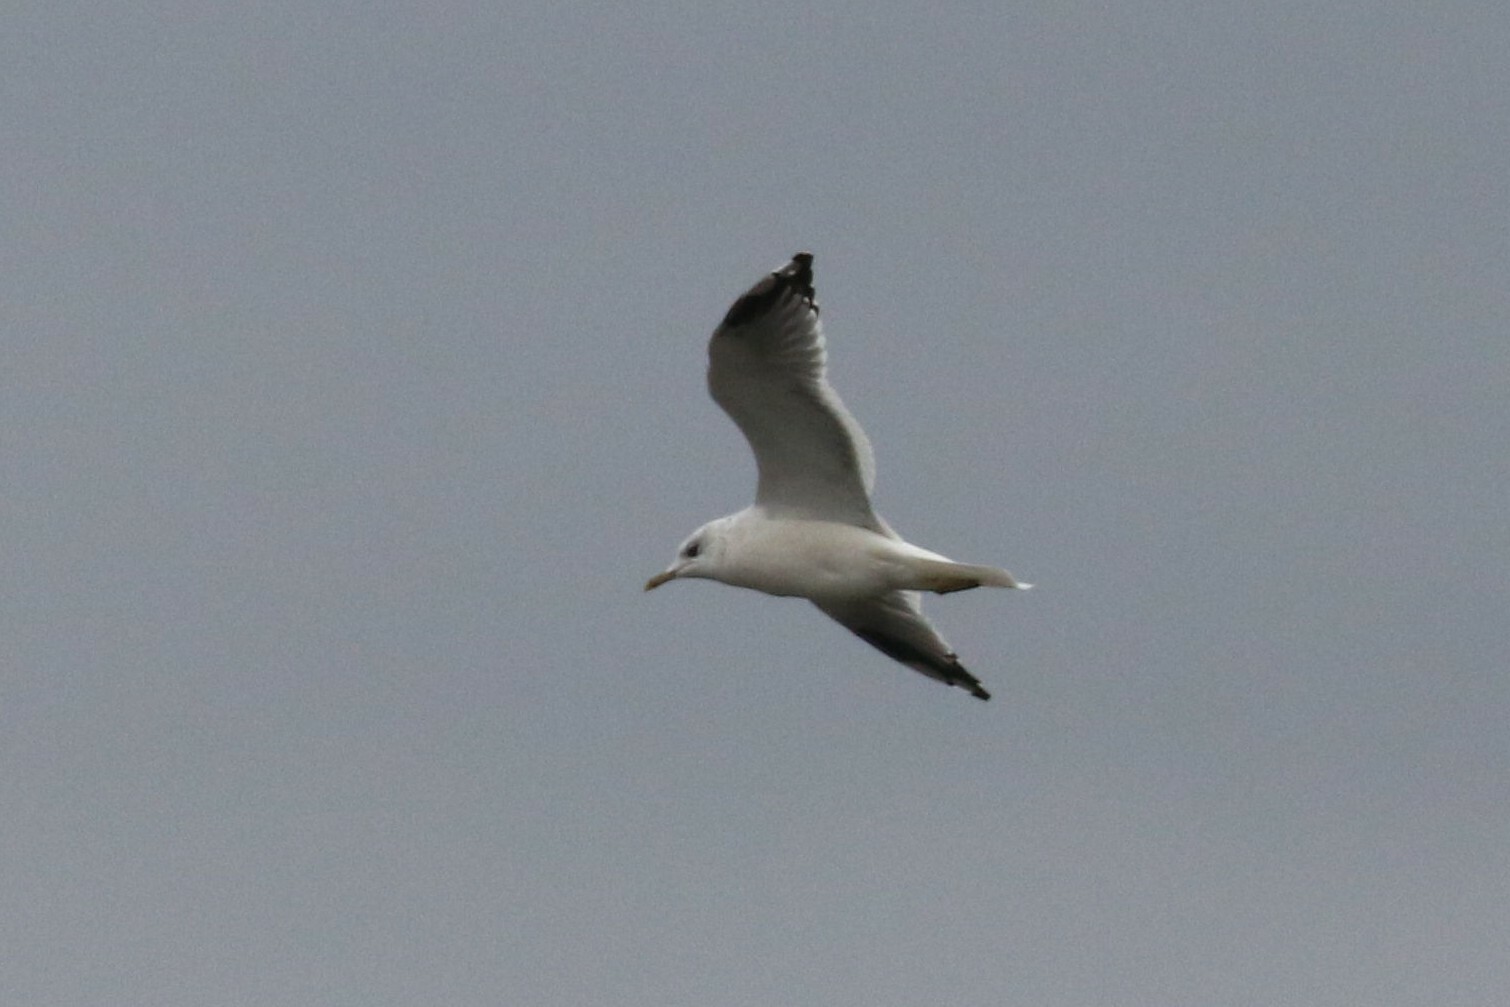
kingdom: Animalia
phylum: Chordata
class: Aves
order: Charadriiformes
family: Laridae
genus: Larus
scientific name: Larus canus
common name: Mew gull
